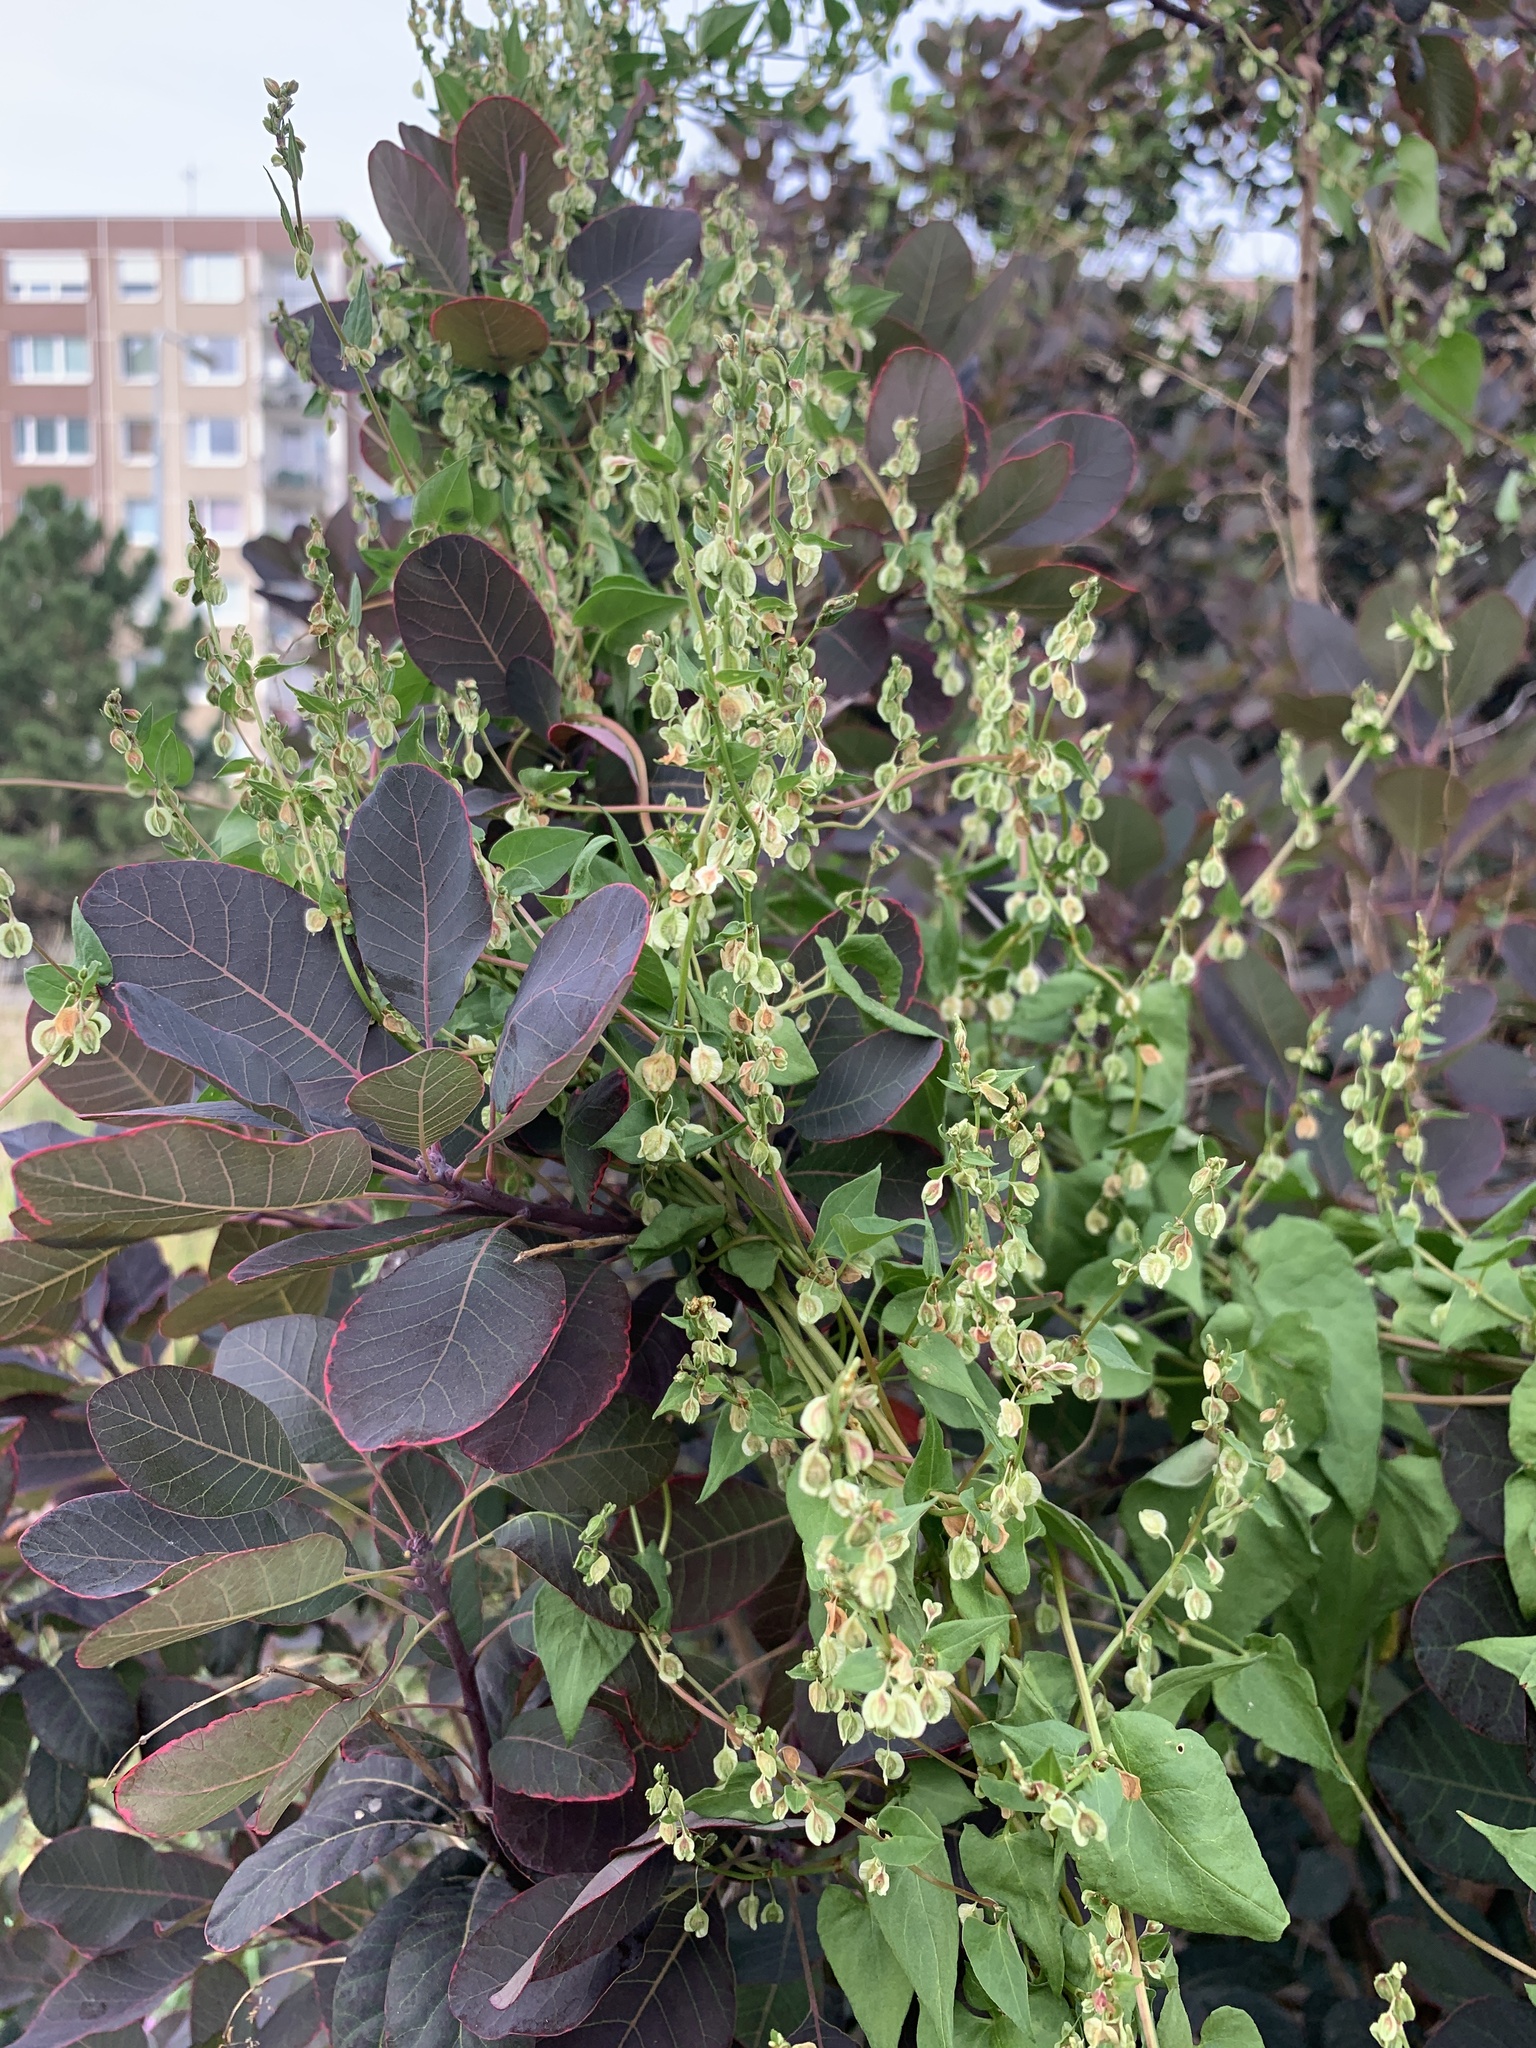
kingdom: Plantae
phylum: Tracheophyta
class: Magnoliopsida
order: Caryophyllales
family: Polygonaceae
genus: Fallopia
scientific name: Fallopia dumetorum
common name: Copse-bindweed
